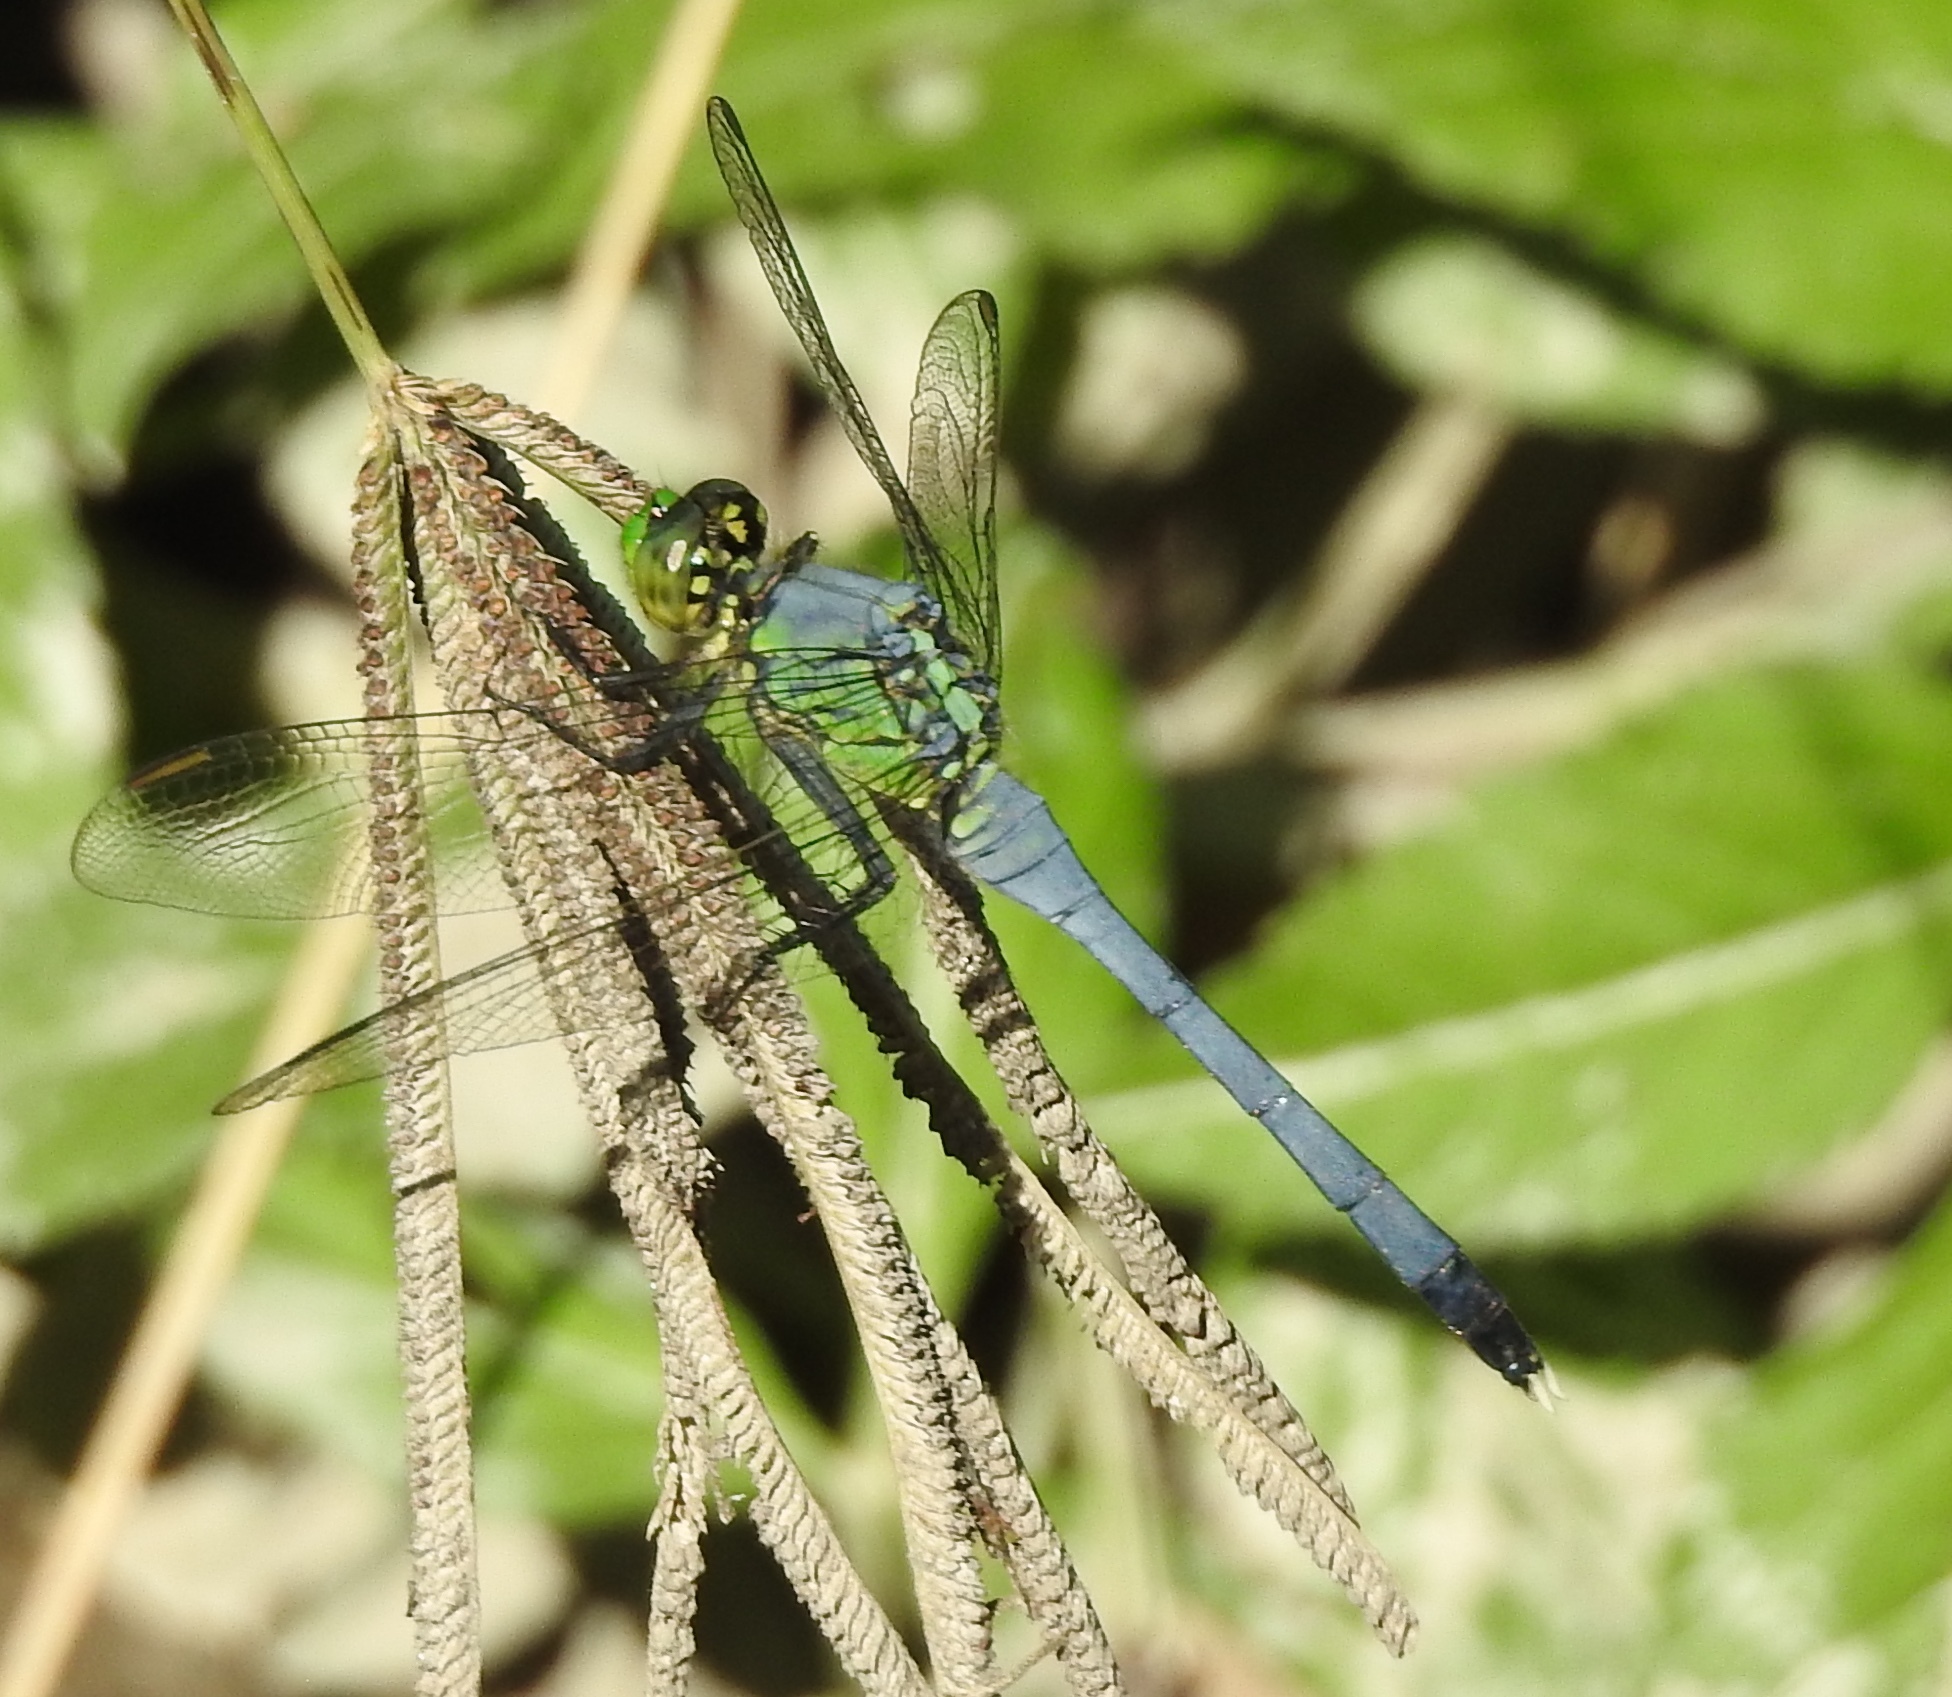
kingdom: Animalia
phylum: Arthropoda
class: Insecta
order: Odonata
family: Libellulidae
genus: Erythemis
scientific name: Erythemis simplicicollis
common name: Eastern pondhawk
